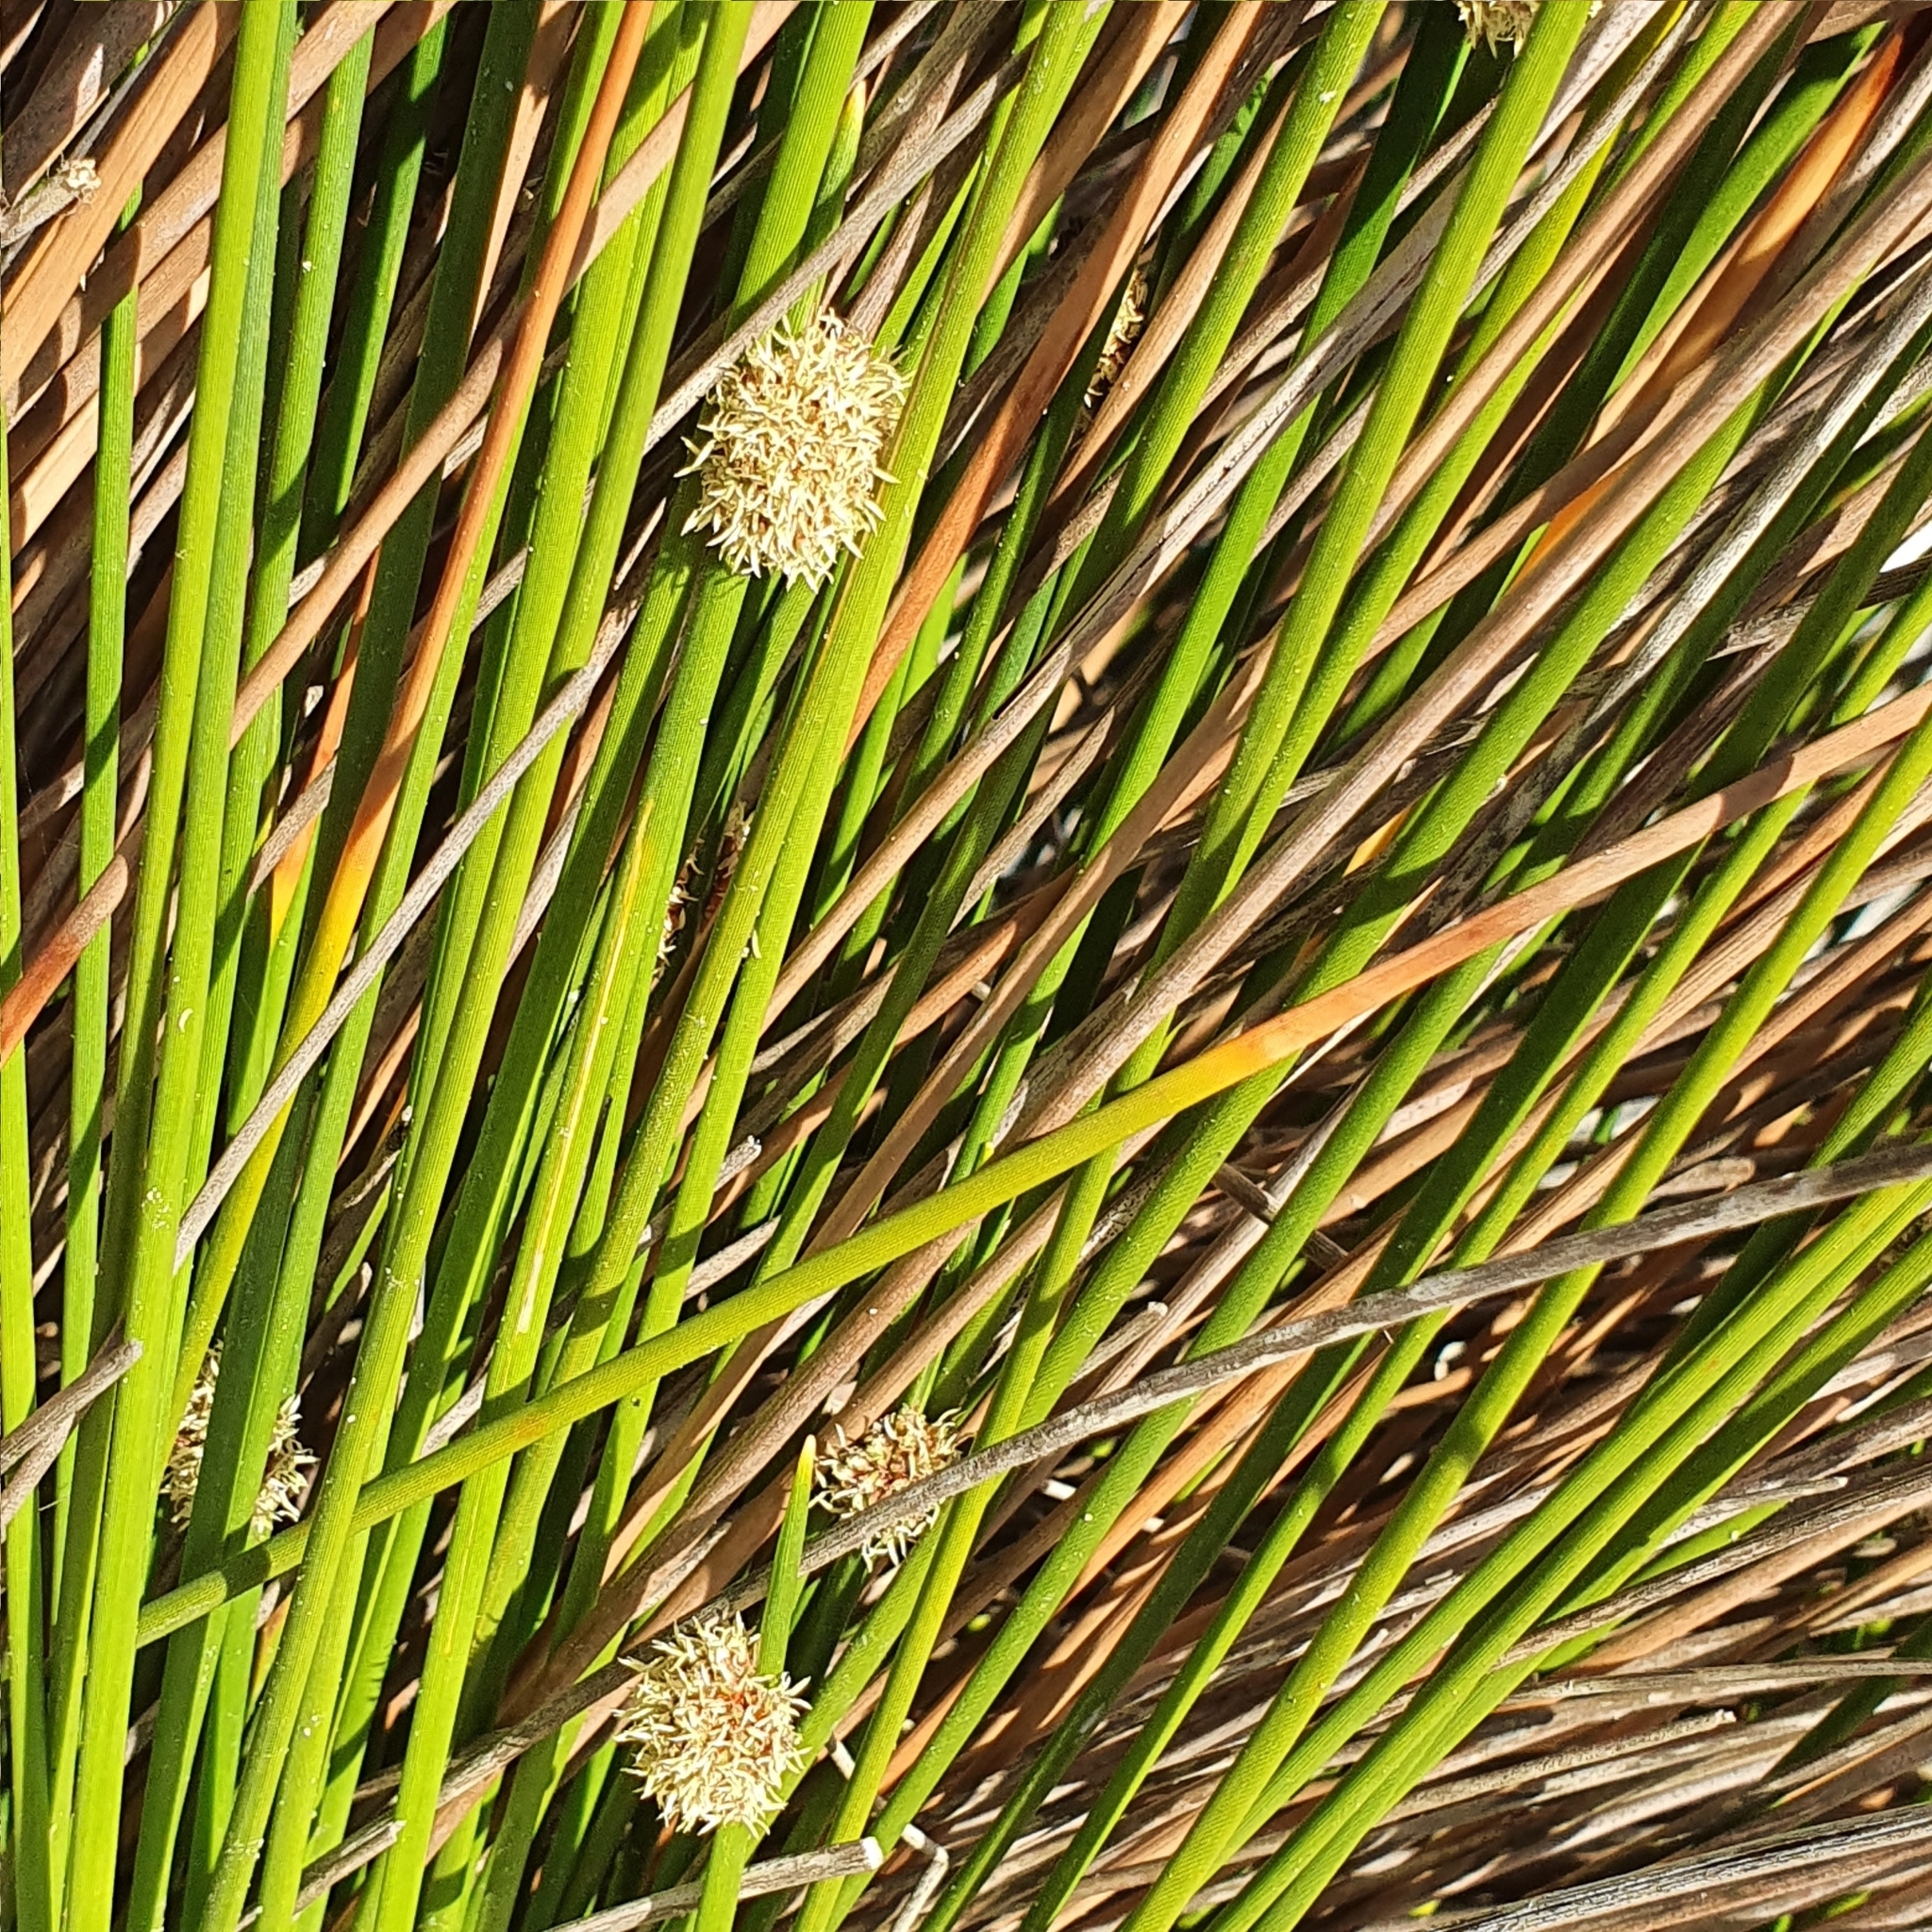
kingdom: Plantae
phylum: Tracheophyta
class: Liliopsida
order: Poales
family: Cyperaceae
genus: Ficinia
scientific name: Ficinia nodosa
